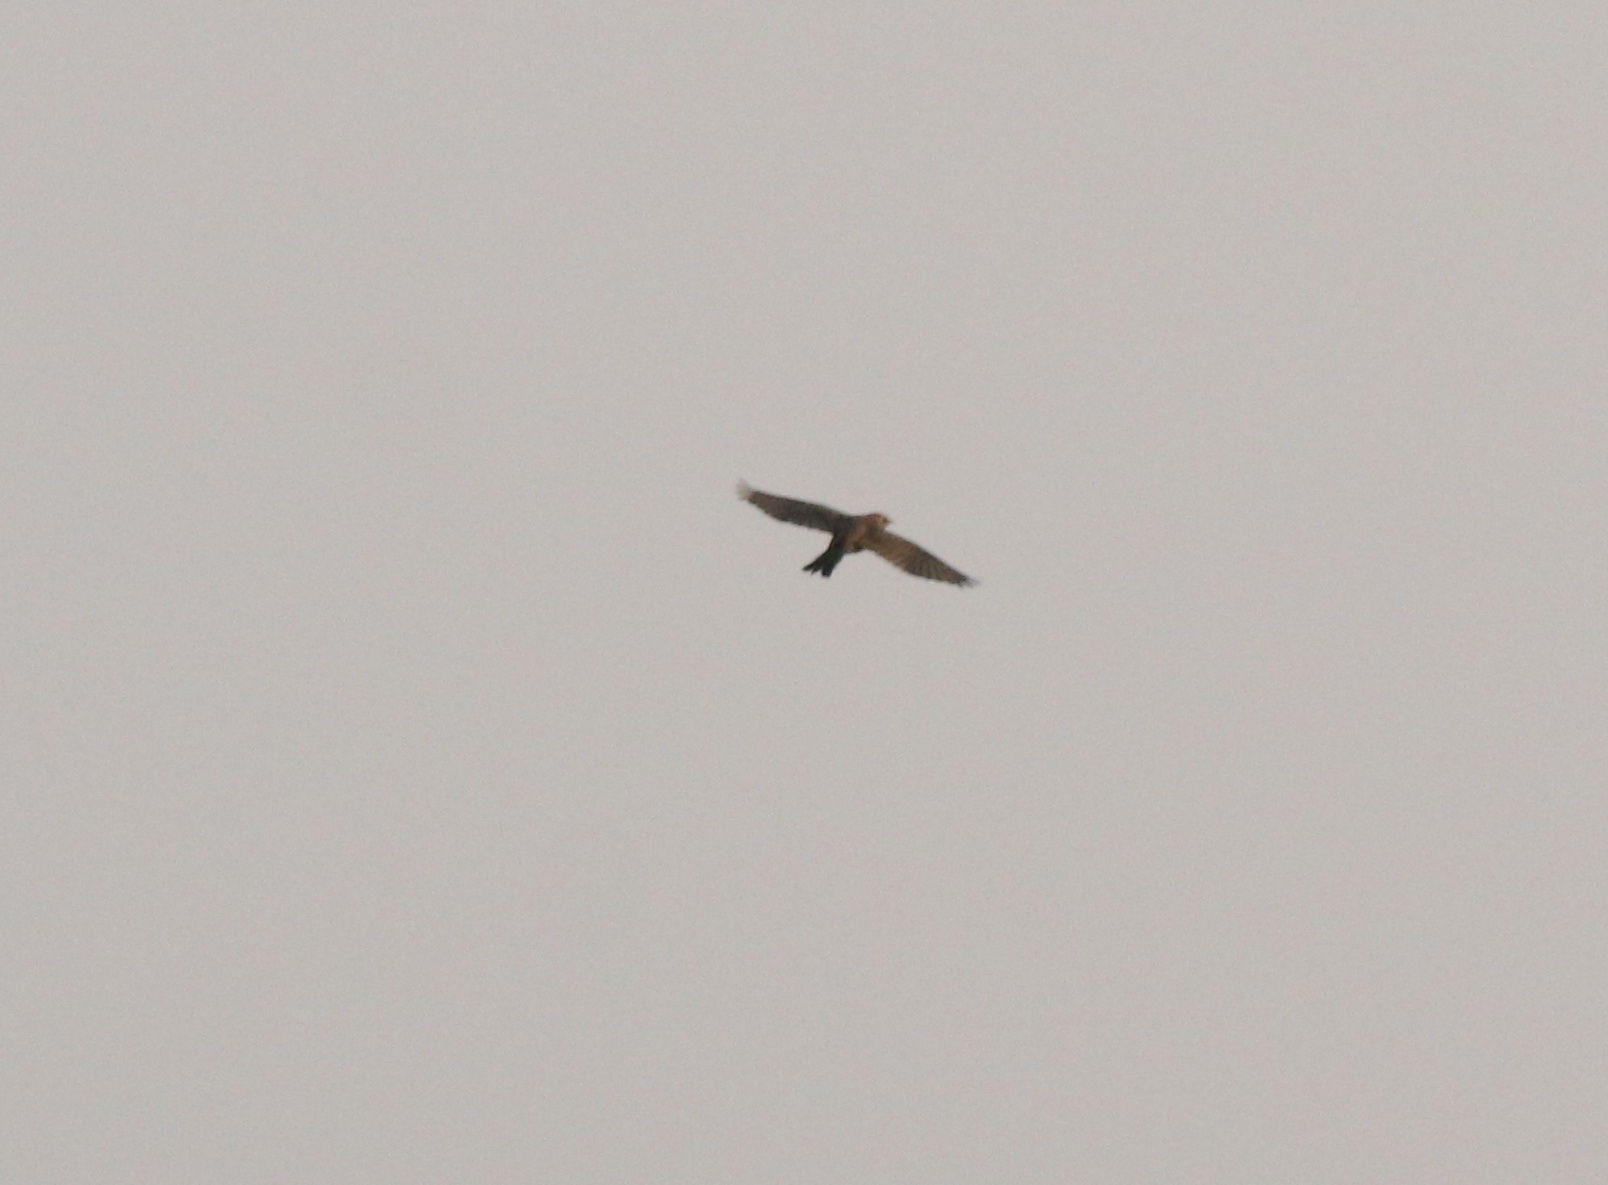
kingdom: Animalia
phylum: Chordata
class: Aves
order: Passeriformes
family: Sturnidae
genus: Sturnia
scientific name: Sturnia malabarica
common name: Chestnut-tailed starling
